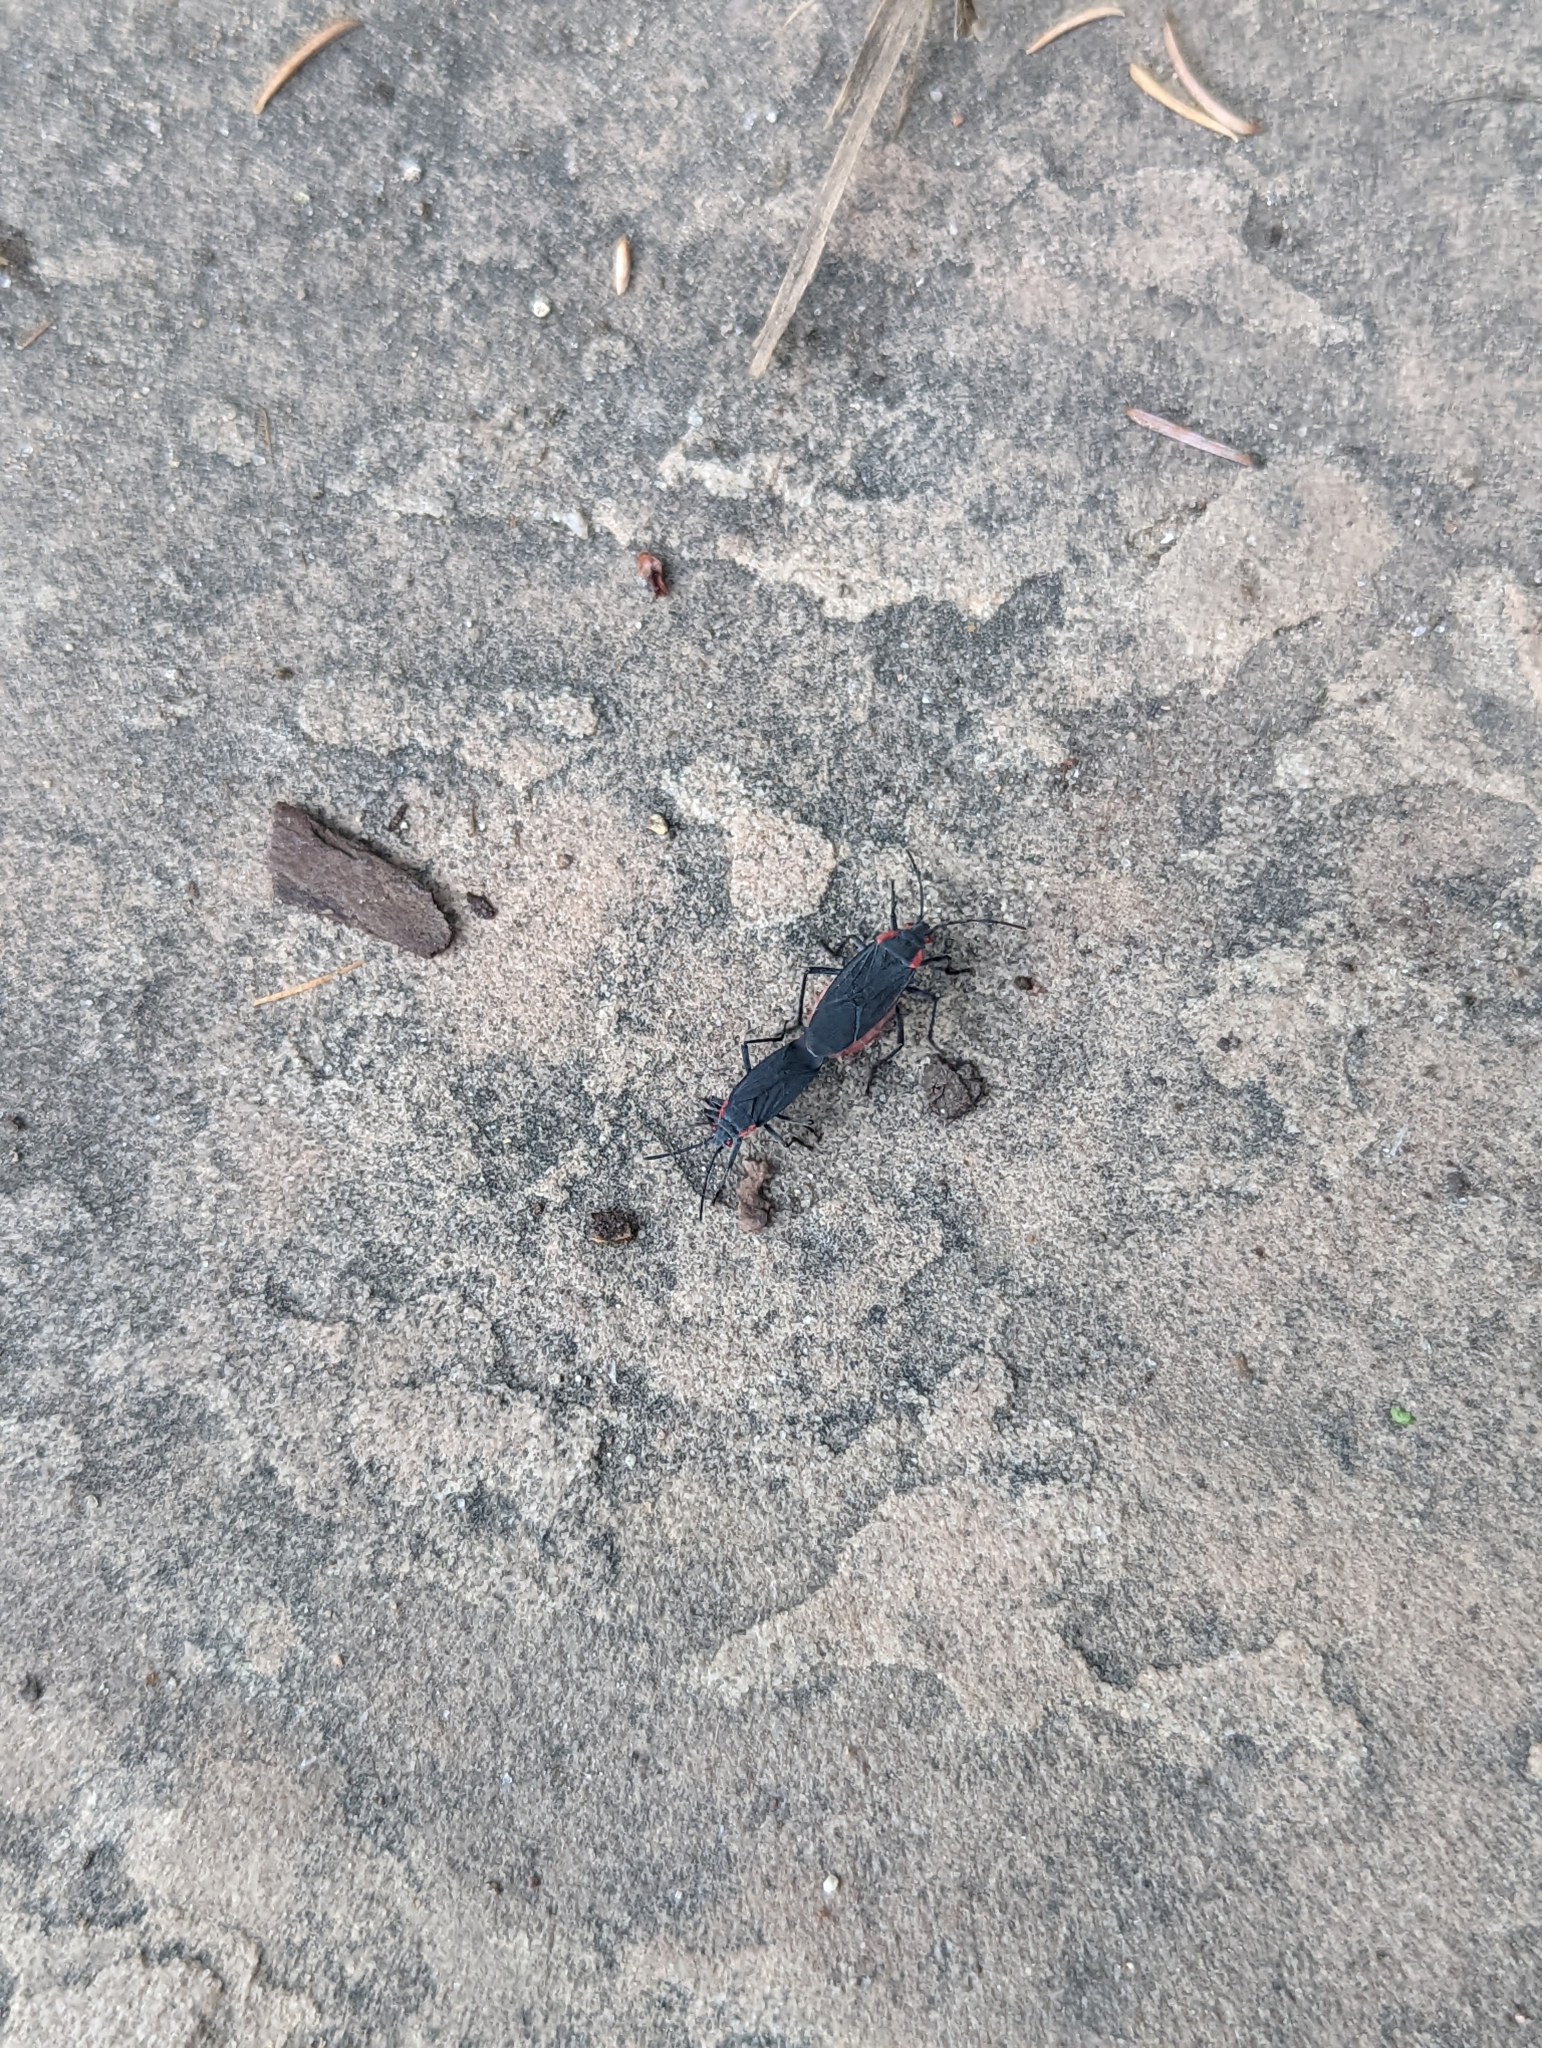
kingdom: Animalia
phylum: Arthropoda
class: Insecta
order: Hemiptera
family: Rhopalidae
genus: Jadera
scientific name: Jadera haematoloma
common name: Red-shouldered bug
